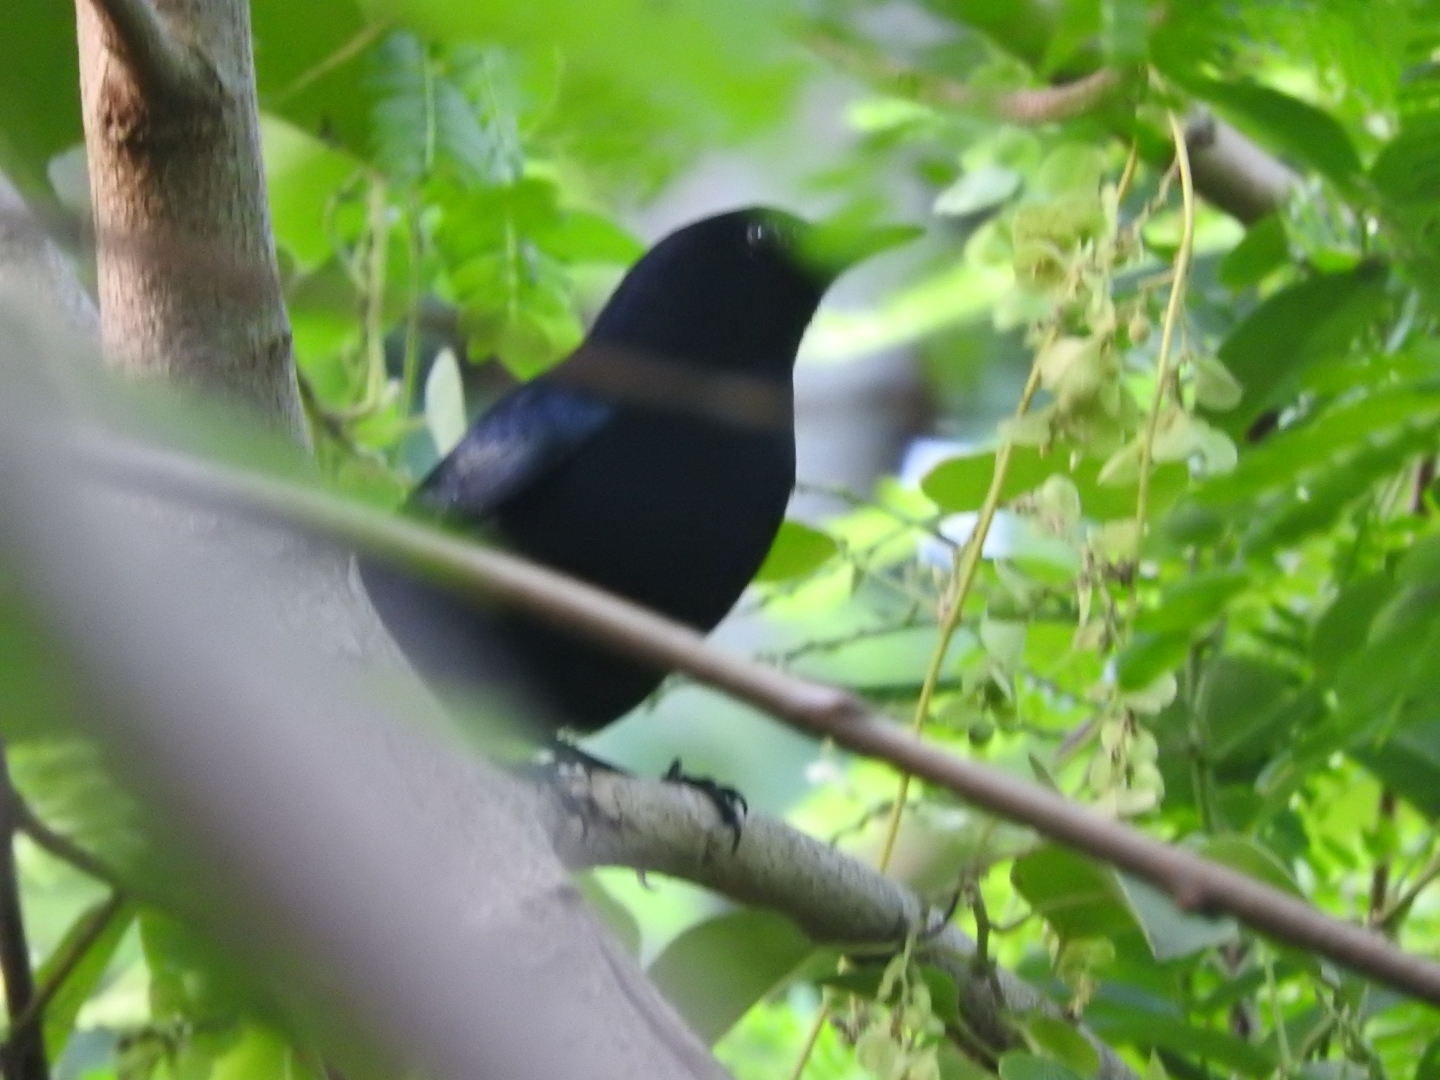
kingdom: Animalia
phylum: Chordata
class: Aves
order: Passeriformes
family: Mimidae
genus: Melanoptila
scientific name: Melanoptila glabrirostris
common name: Black catbird
